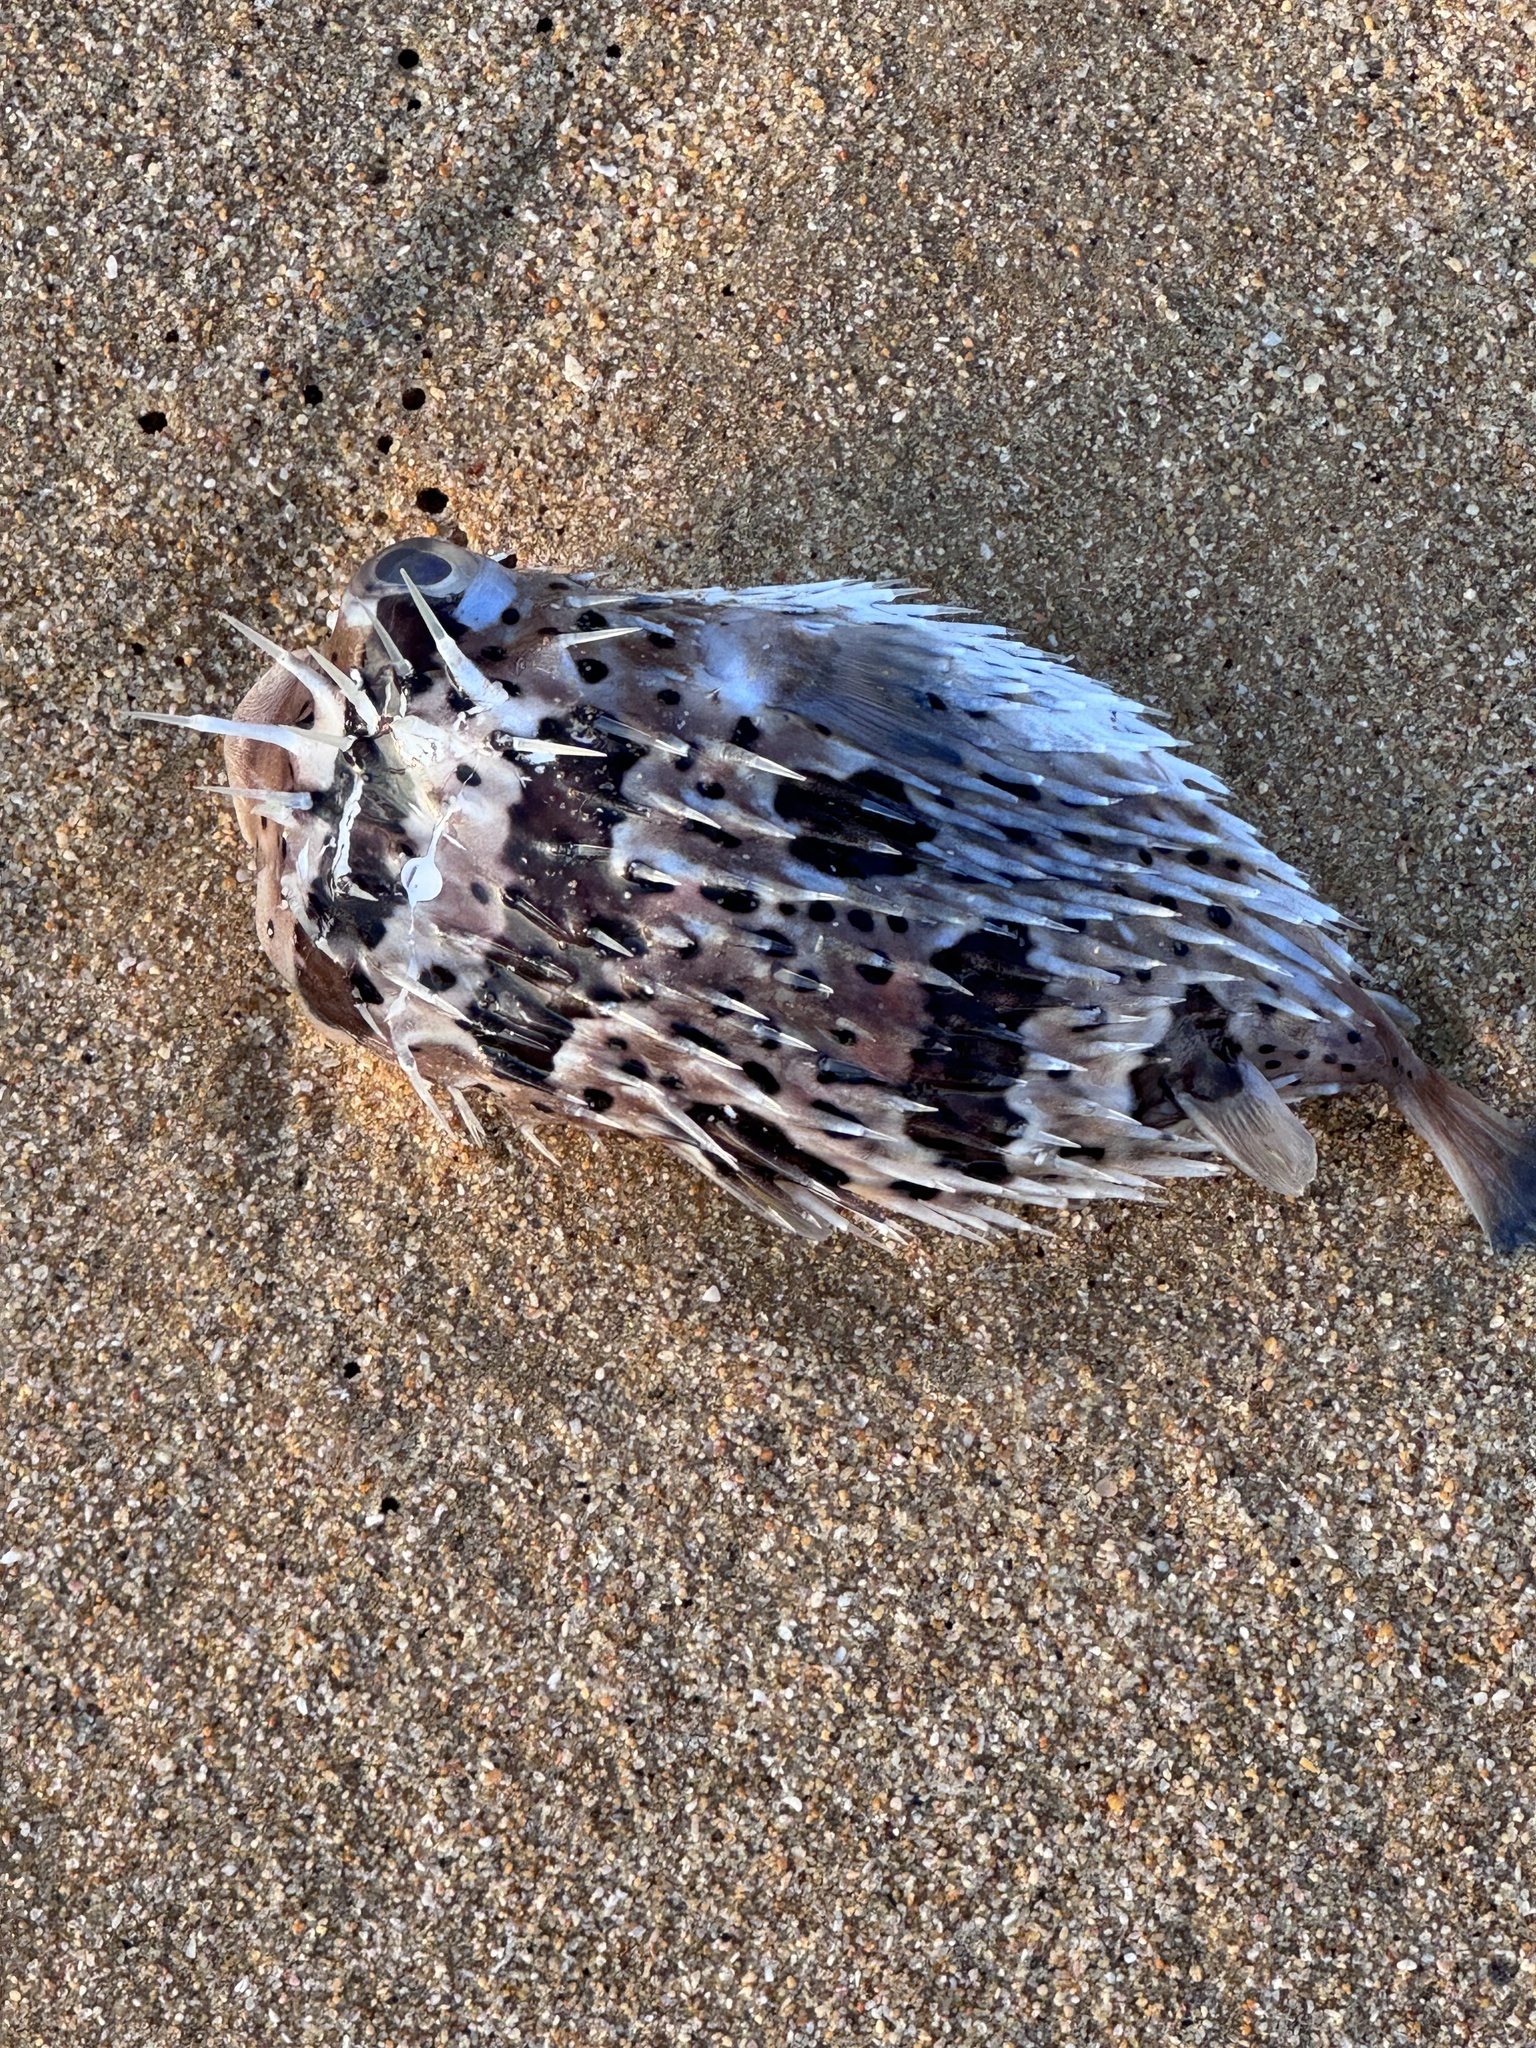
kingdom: Animalia
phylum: Chordata
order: Tetraodontiformes
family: Diodontidae
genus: Diodon
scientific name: Diodon holocanthus
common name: Balloonfish
